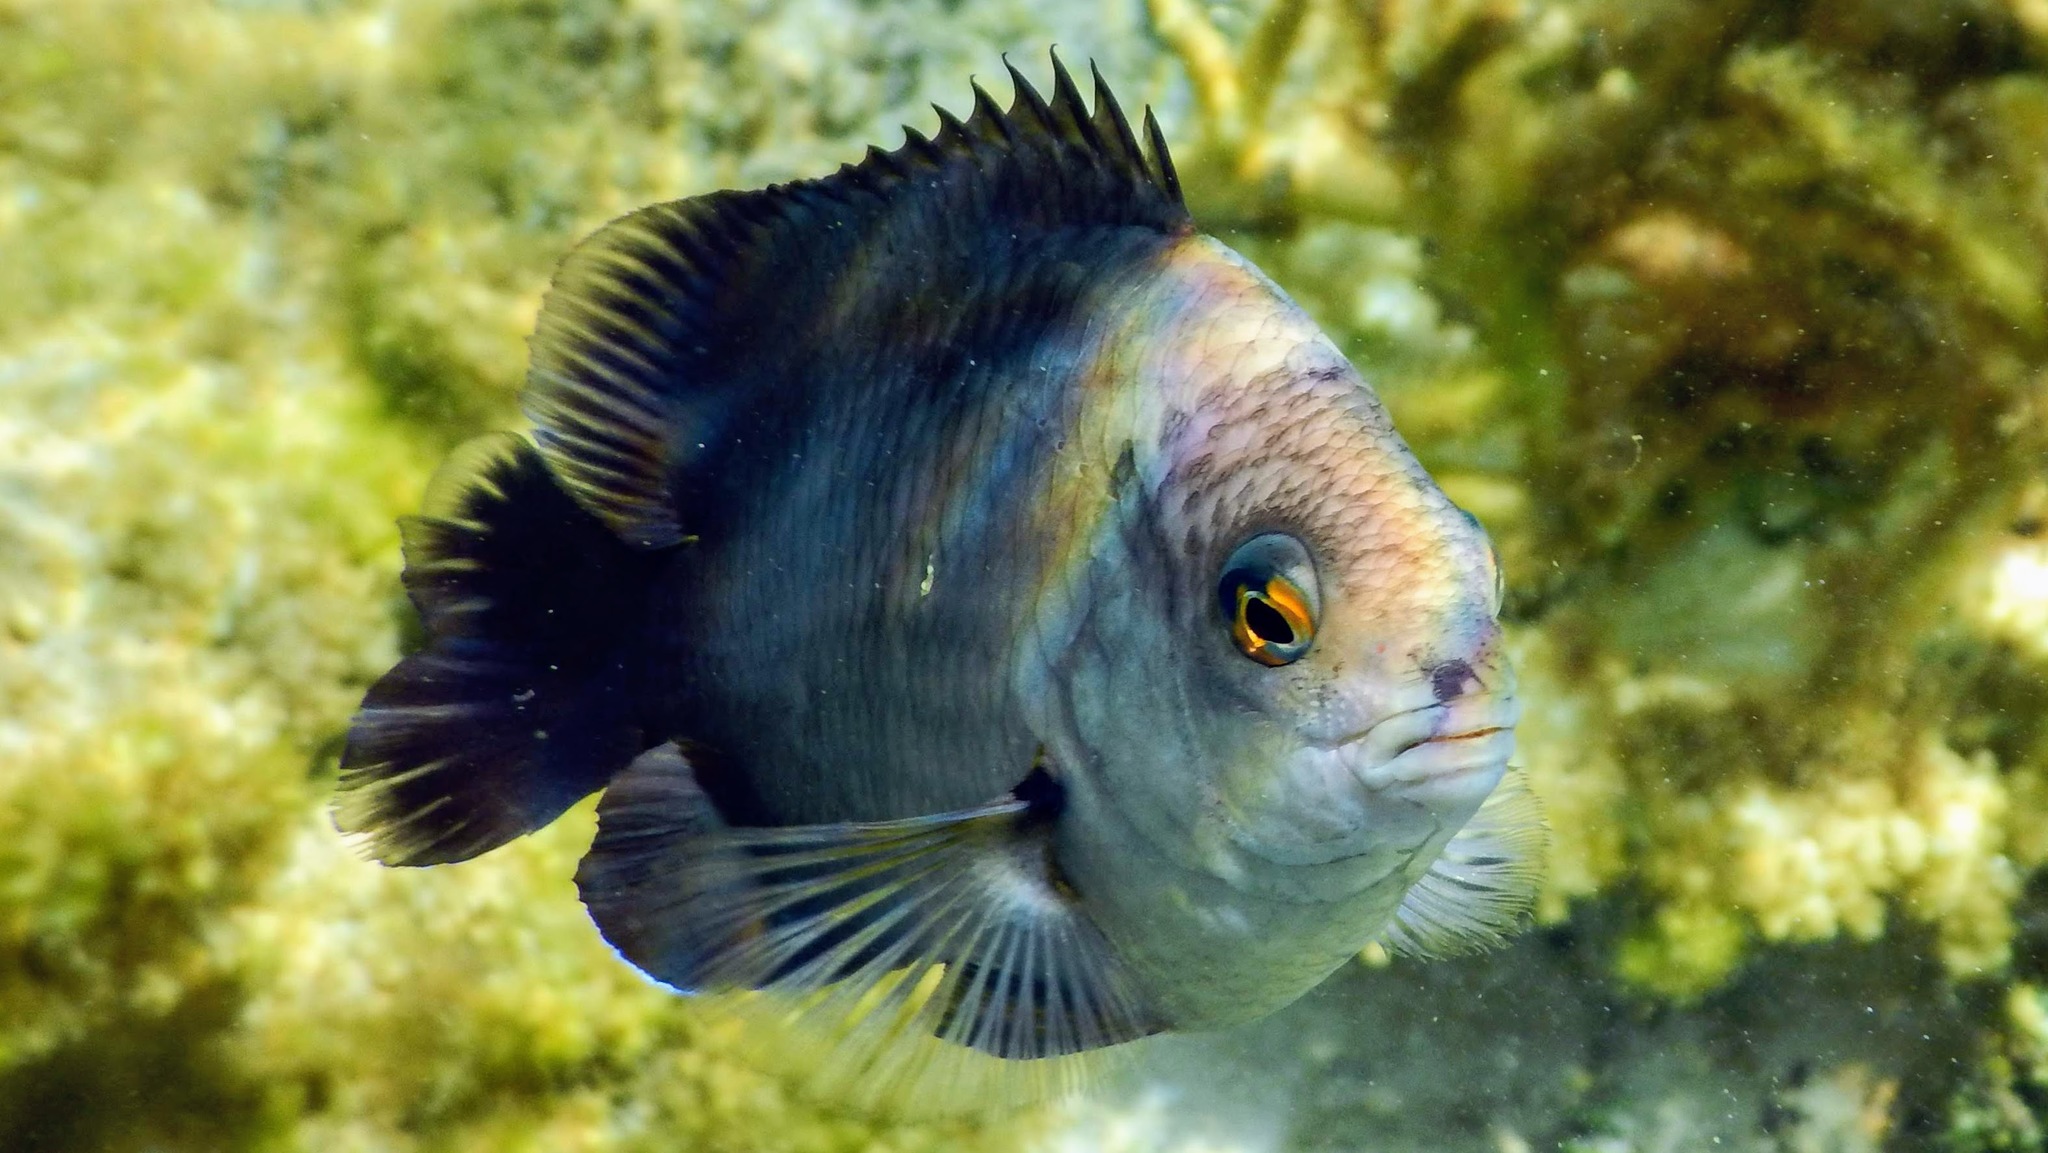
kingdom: Animalia
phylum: Chordata
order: Perciformes
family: Pomacentridae
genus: Stegastes
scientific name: Stegastes nigricans
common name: Dusky gregory
